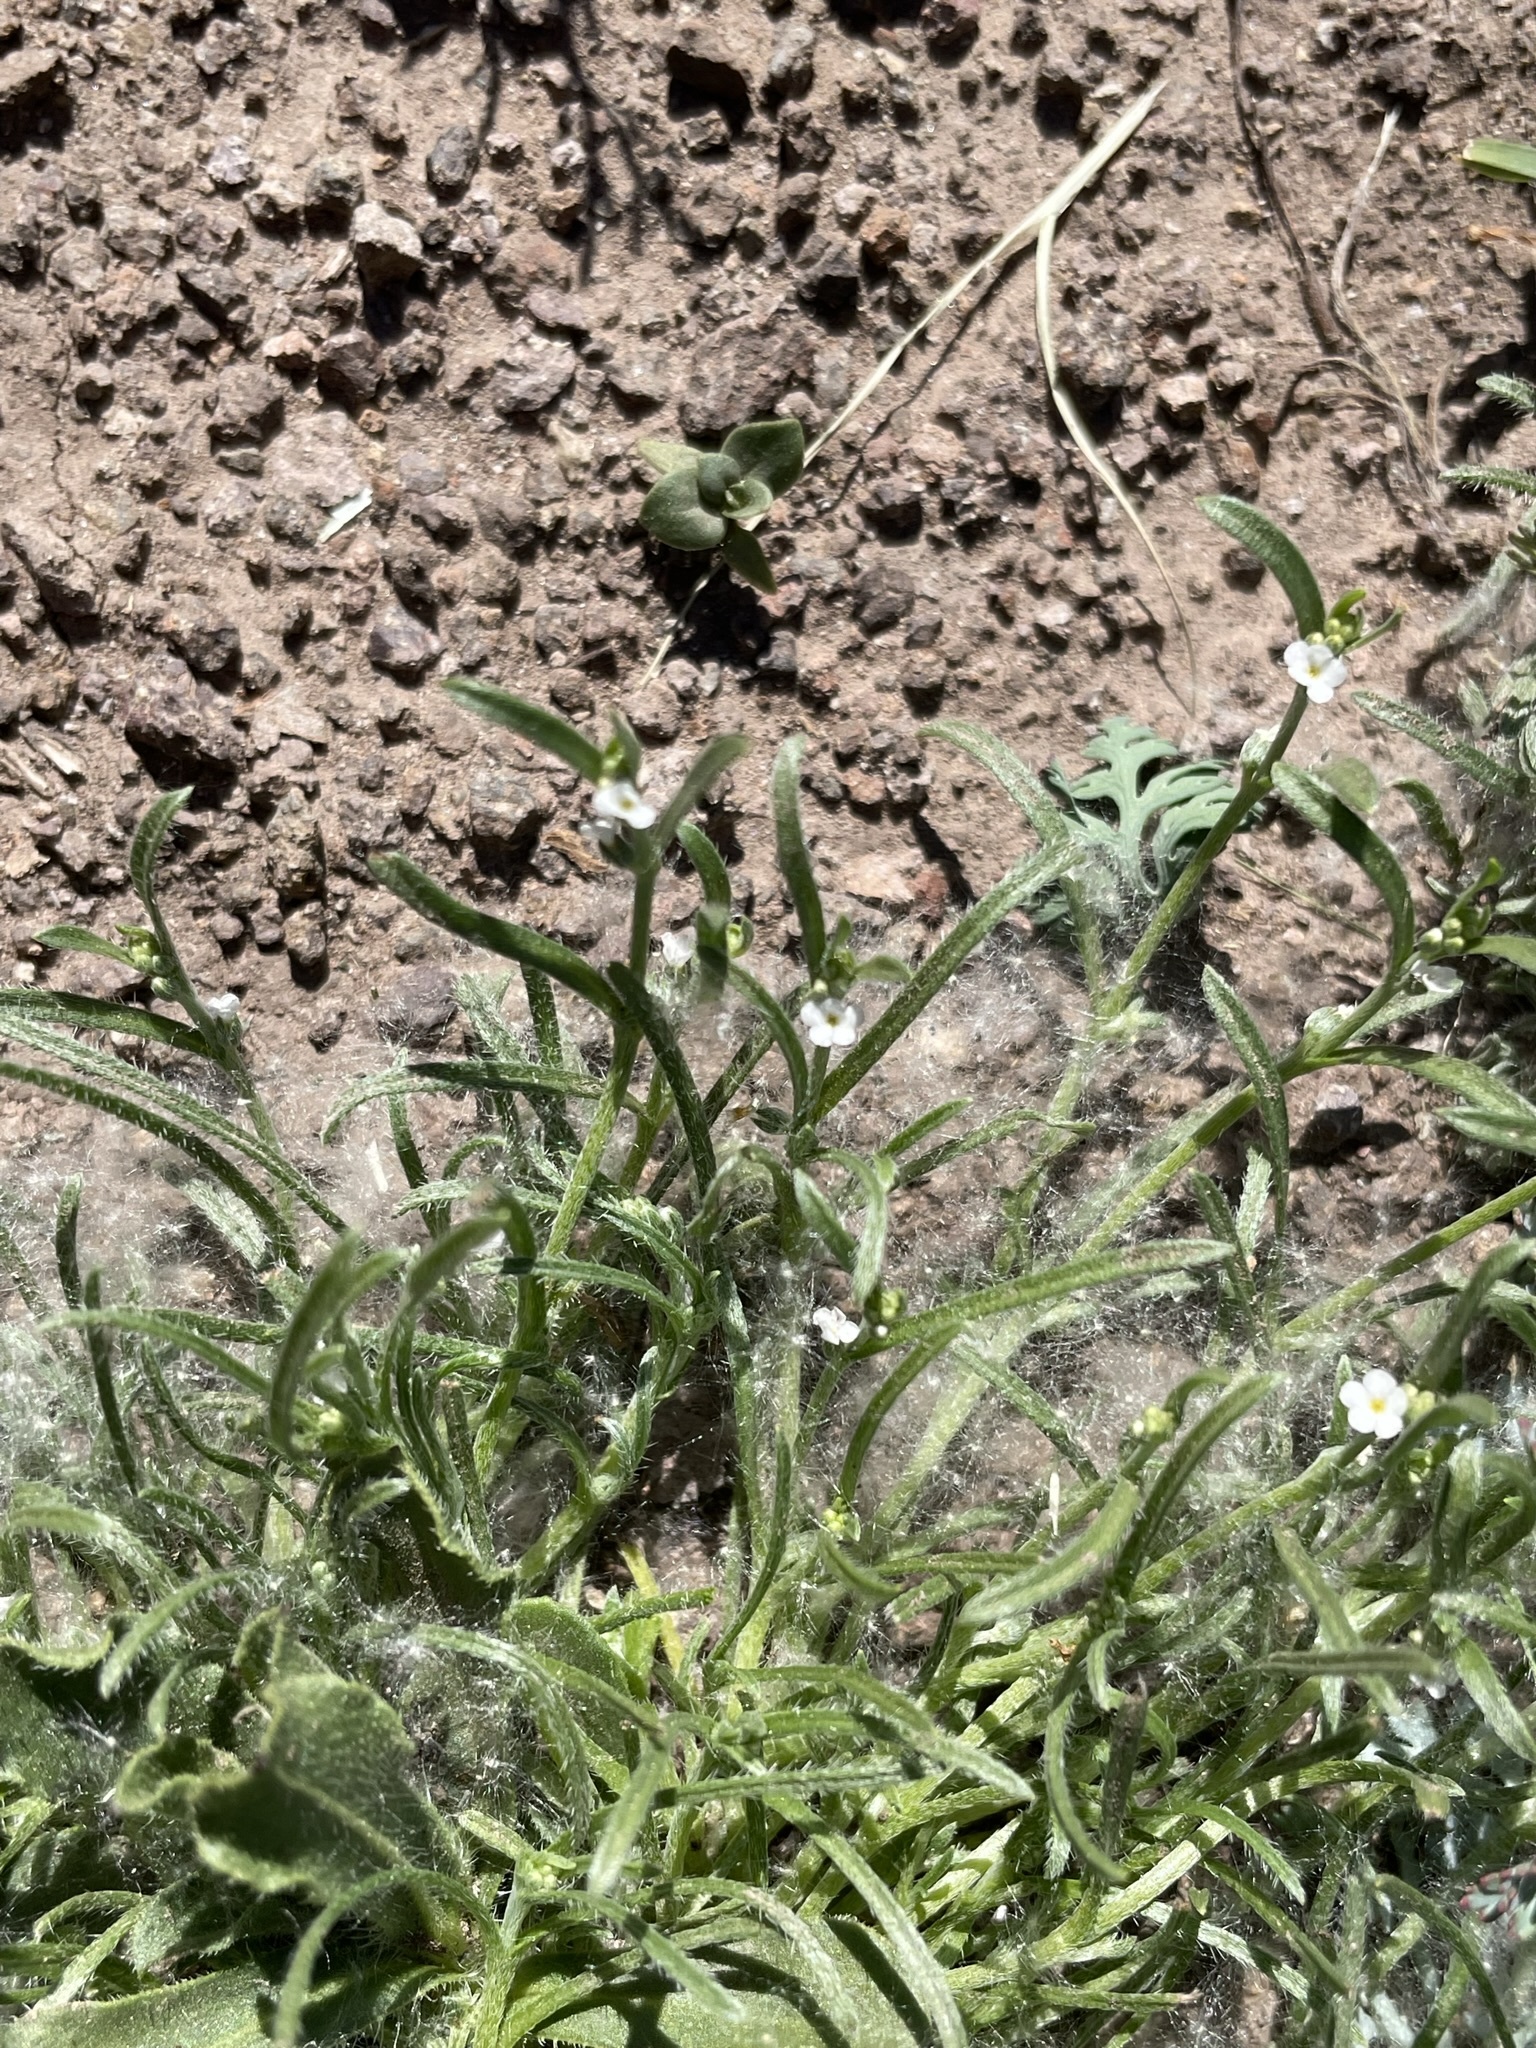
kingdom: Plantae
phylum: Tracheophyta
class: Magnoliopsida
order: Boraginales
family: Boraginaceae
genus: Pectocarya
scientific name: Pectocarya linearis
